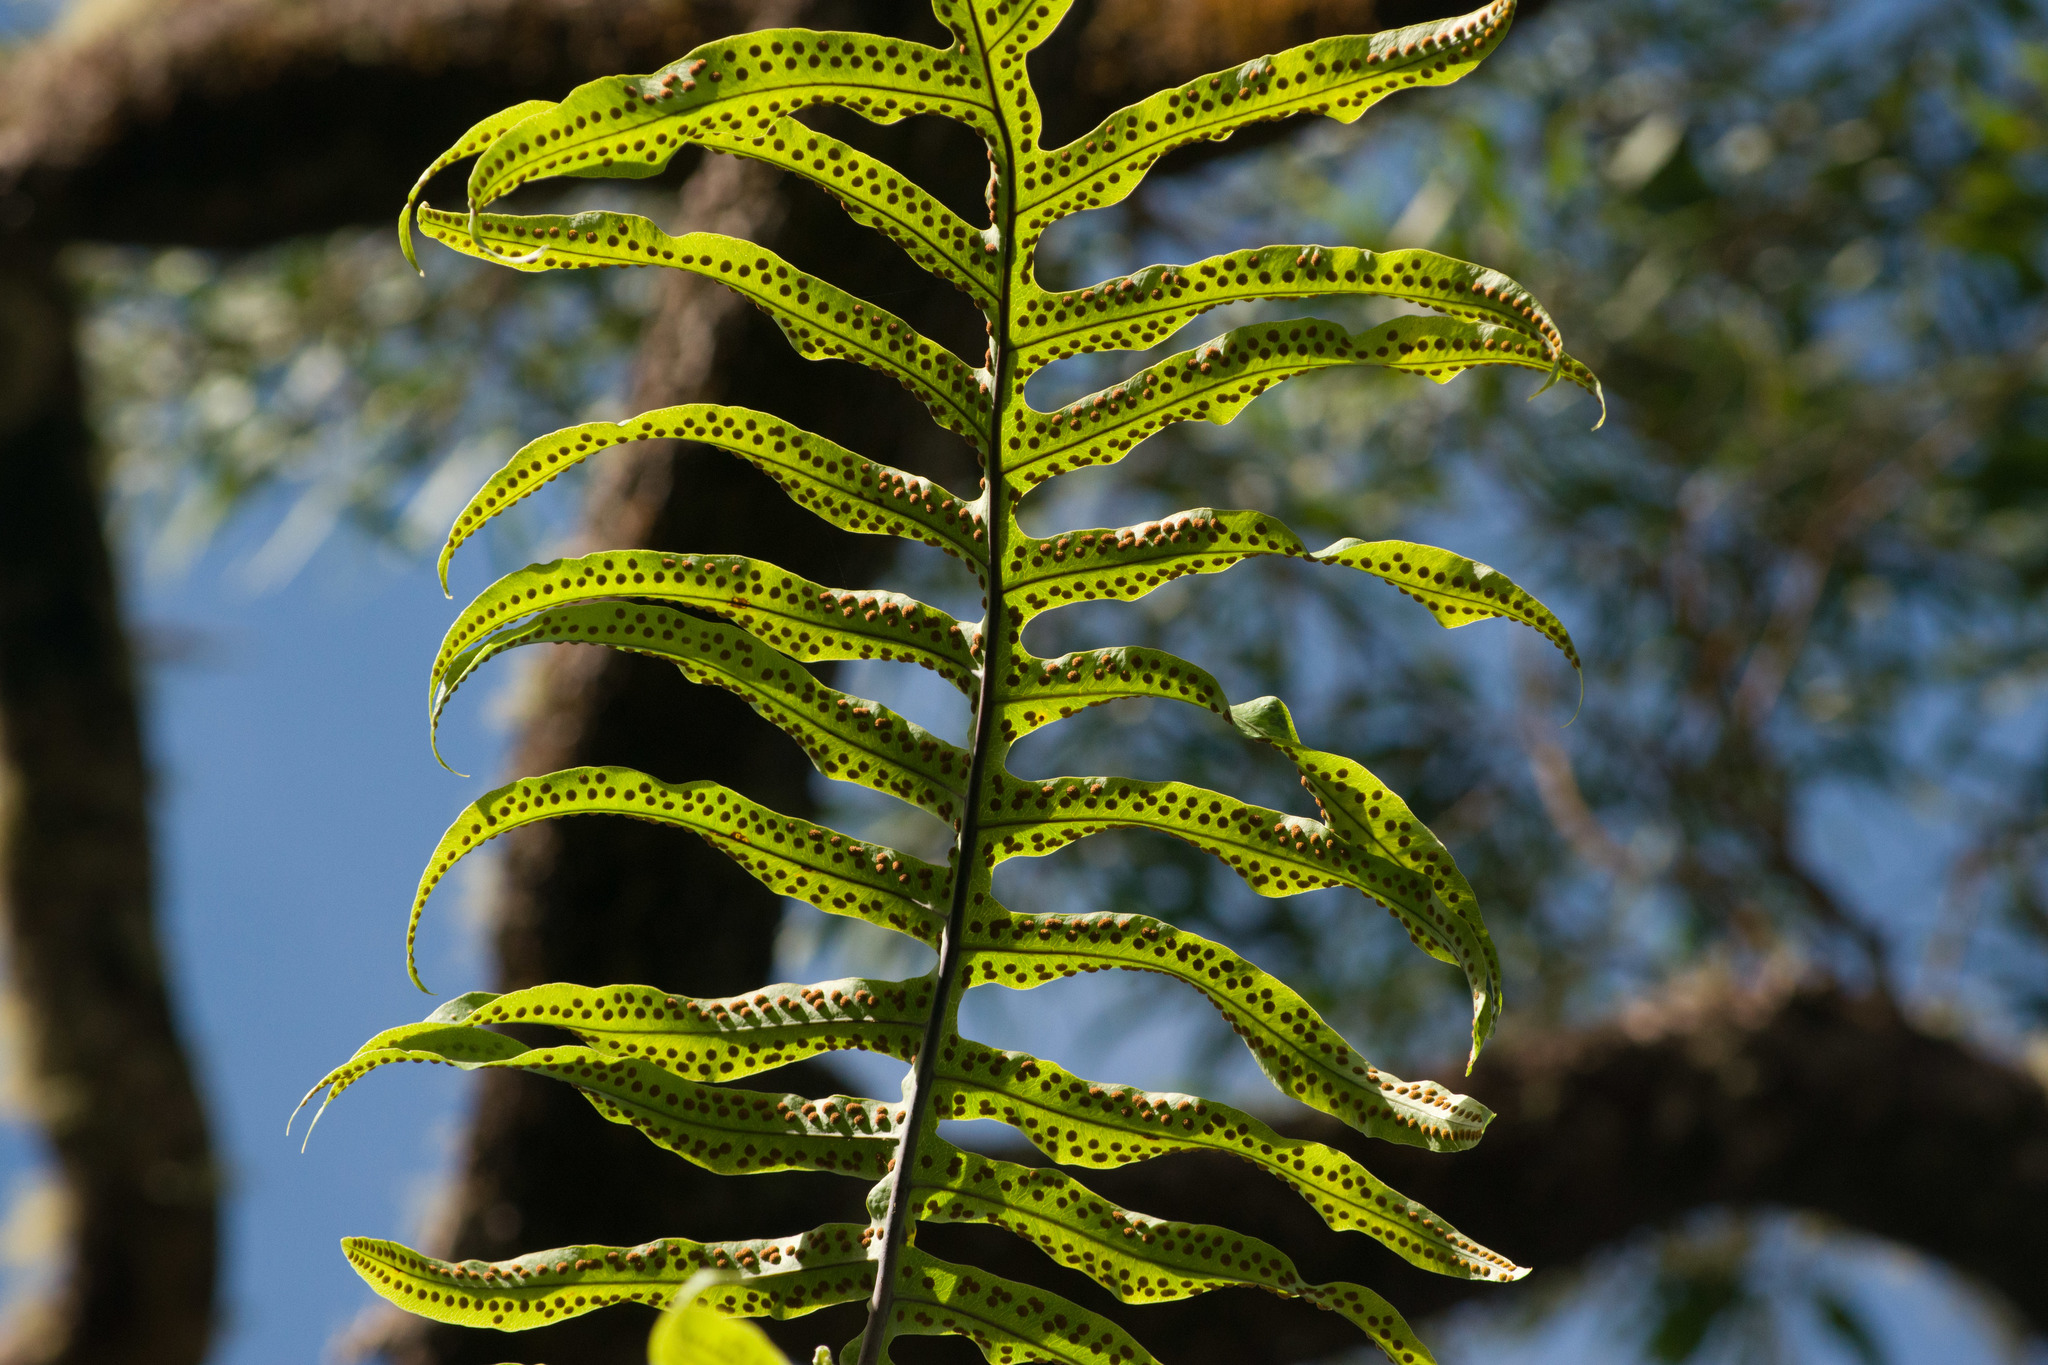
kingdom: Plantae
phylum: Tracheophyta
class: Polypodiopsida
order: Polypodiales
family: Polypodiaceae
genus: Phlebodium
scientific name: Phlebodium aureum
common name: Gold-foot fern
